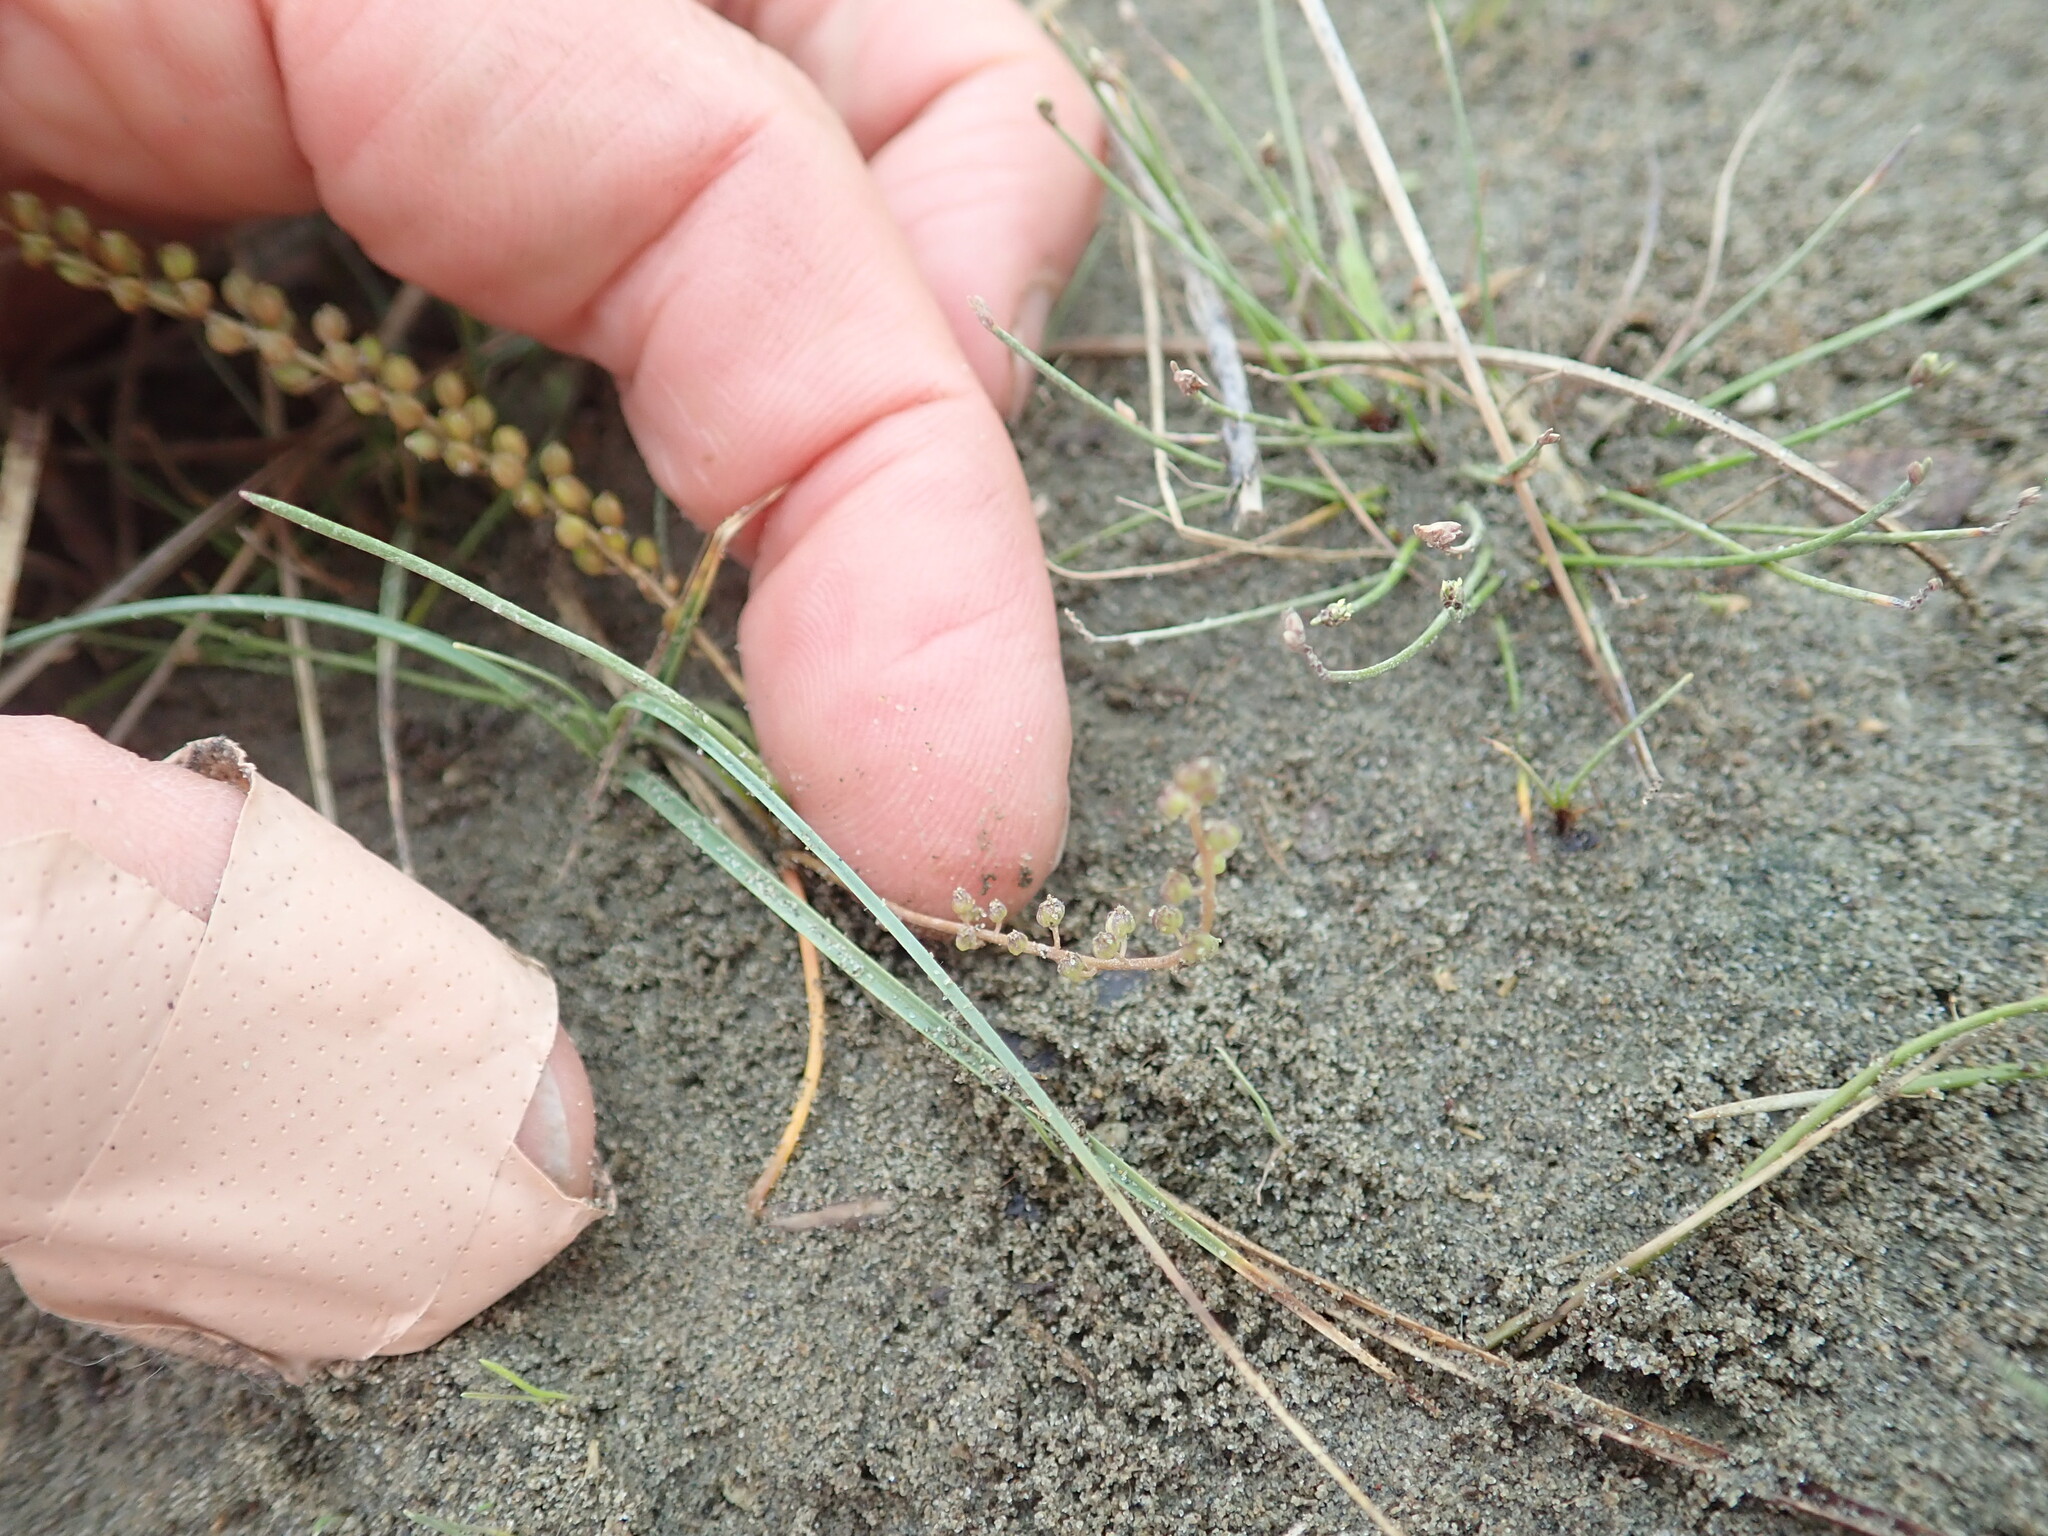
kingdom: Plantae
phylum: Tracheophyta
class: Liliopsida
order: Alismatales
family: Juncaginaceae
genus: Triglochin
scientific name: Triglochin striata
